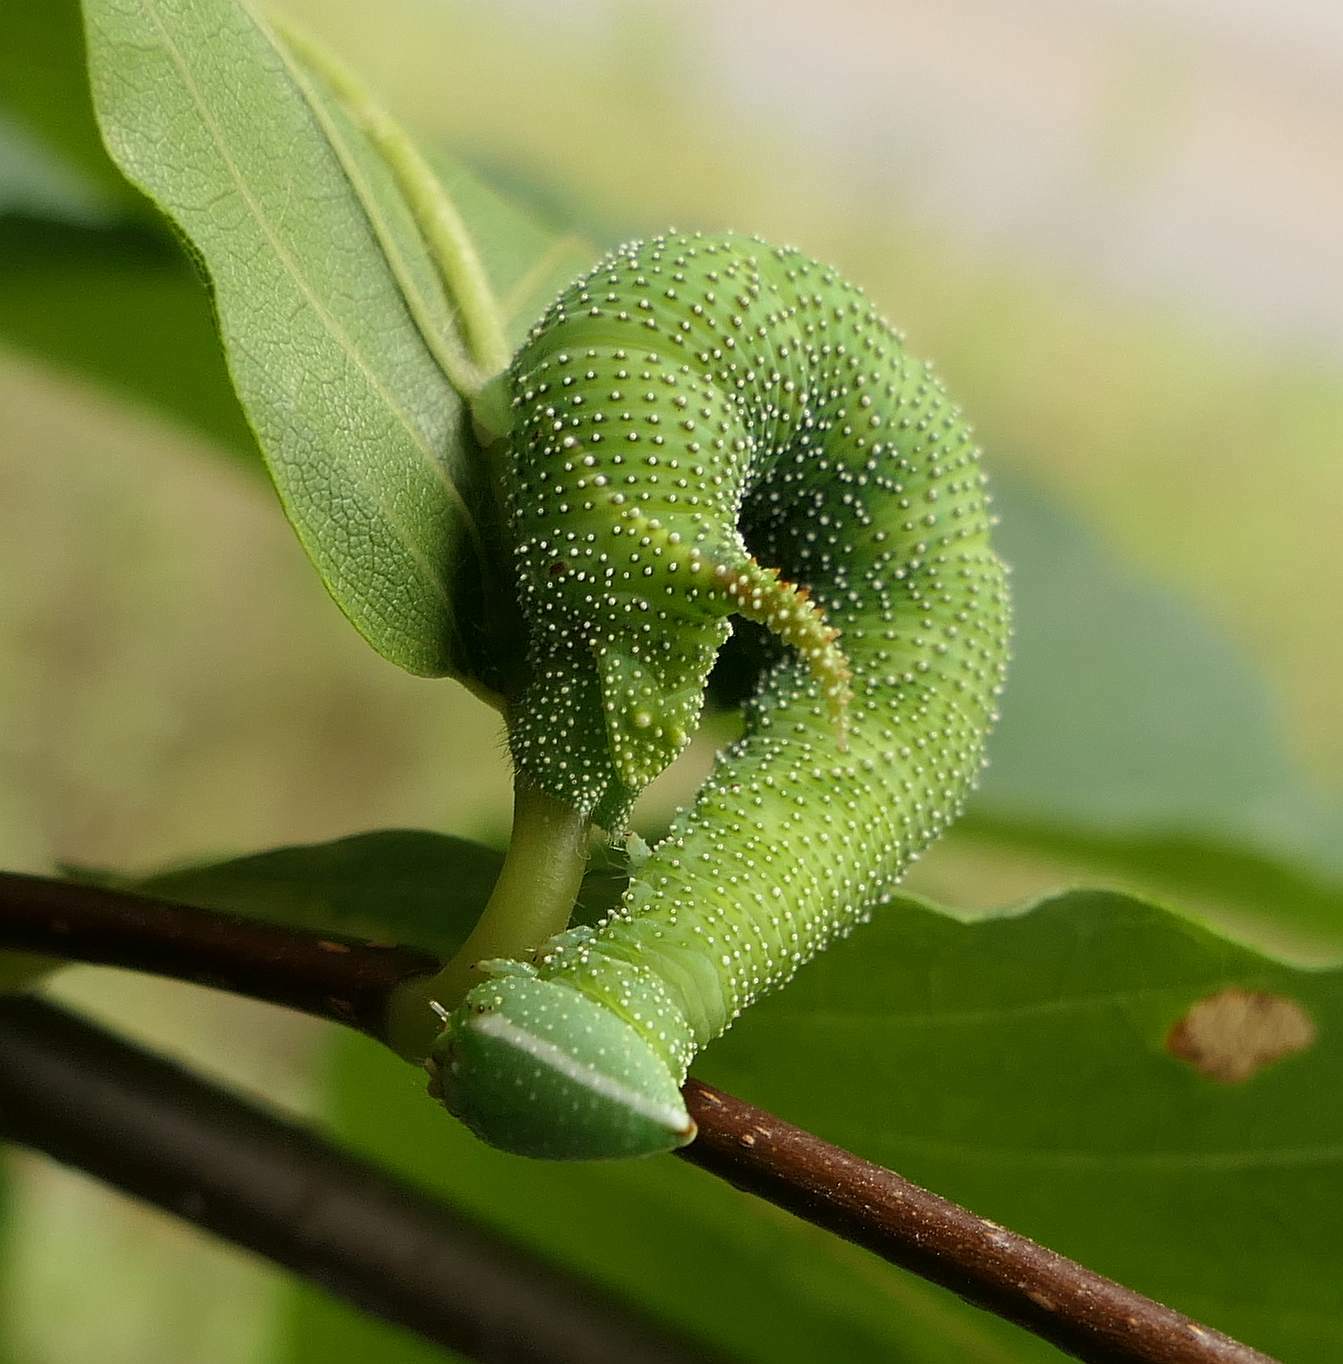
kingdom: Animalia
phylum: Arthropoda
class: Insecta
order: Lepidoptera
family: Sphingidae
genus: Amorpha
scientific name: Amorpha juglandis
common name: Walnut sphinx
